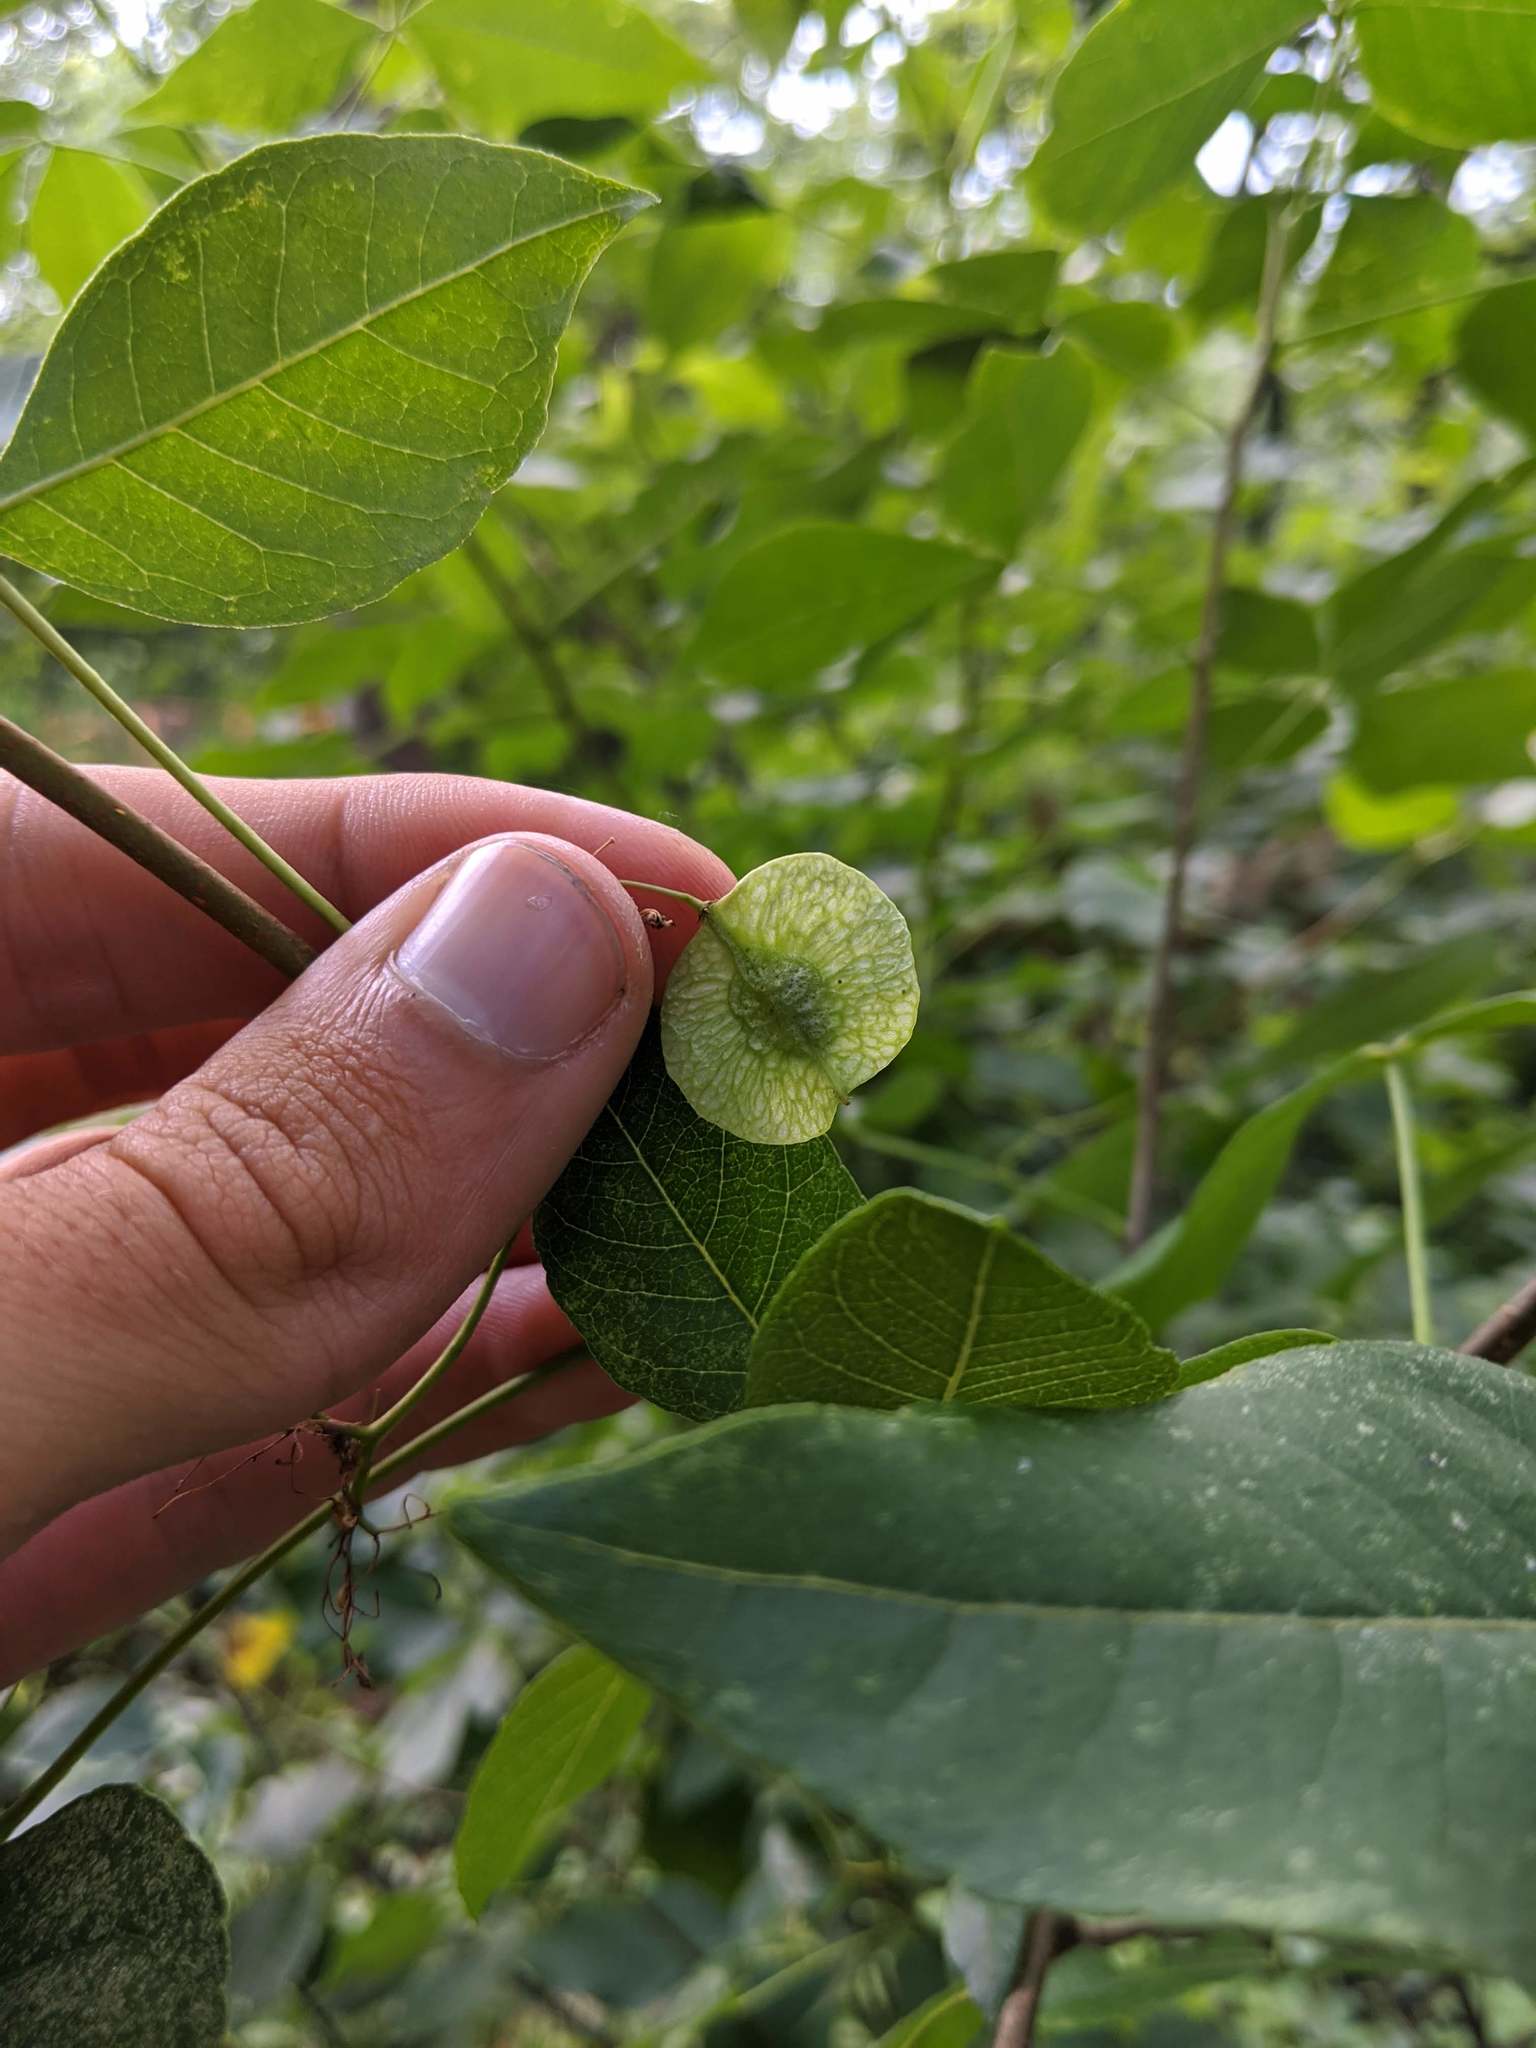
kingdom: Plantae
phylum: Tracheophyta
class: Magnoliopsida
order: Sapindales
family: Rutaceae
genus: Ptelea
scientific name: Ptelea trifoliata
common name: Common hop-tree
